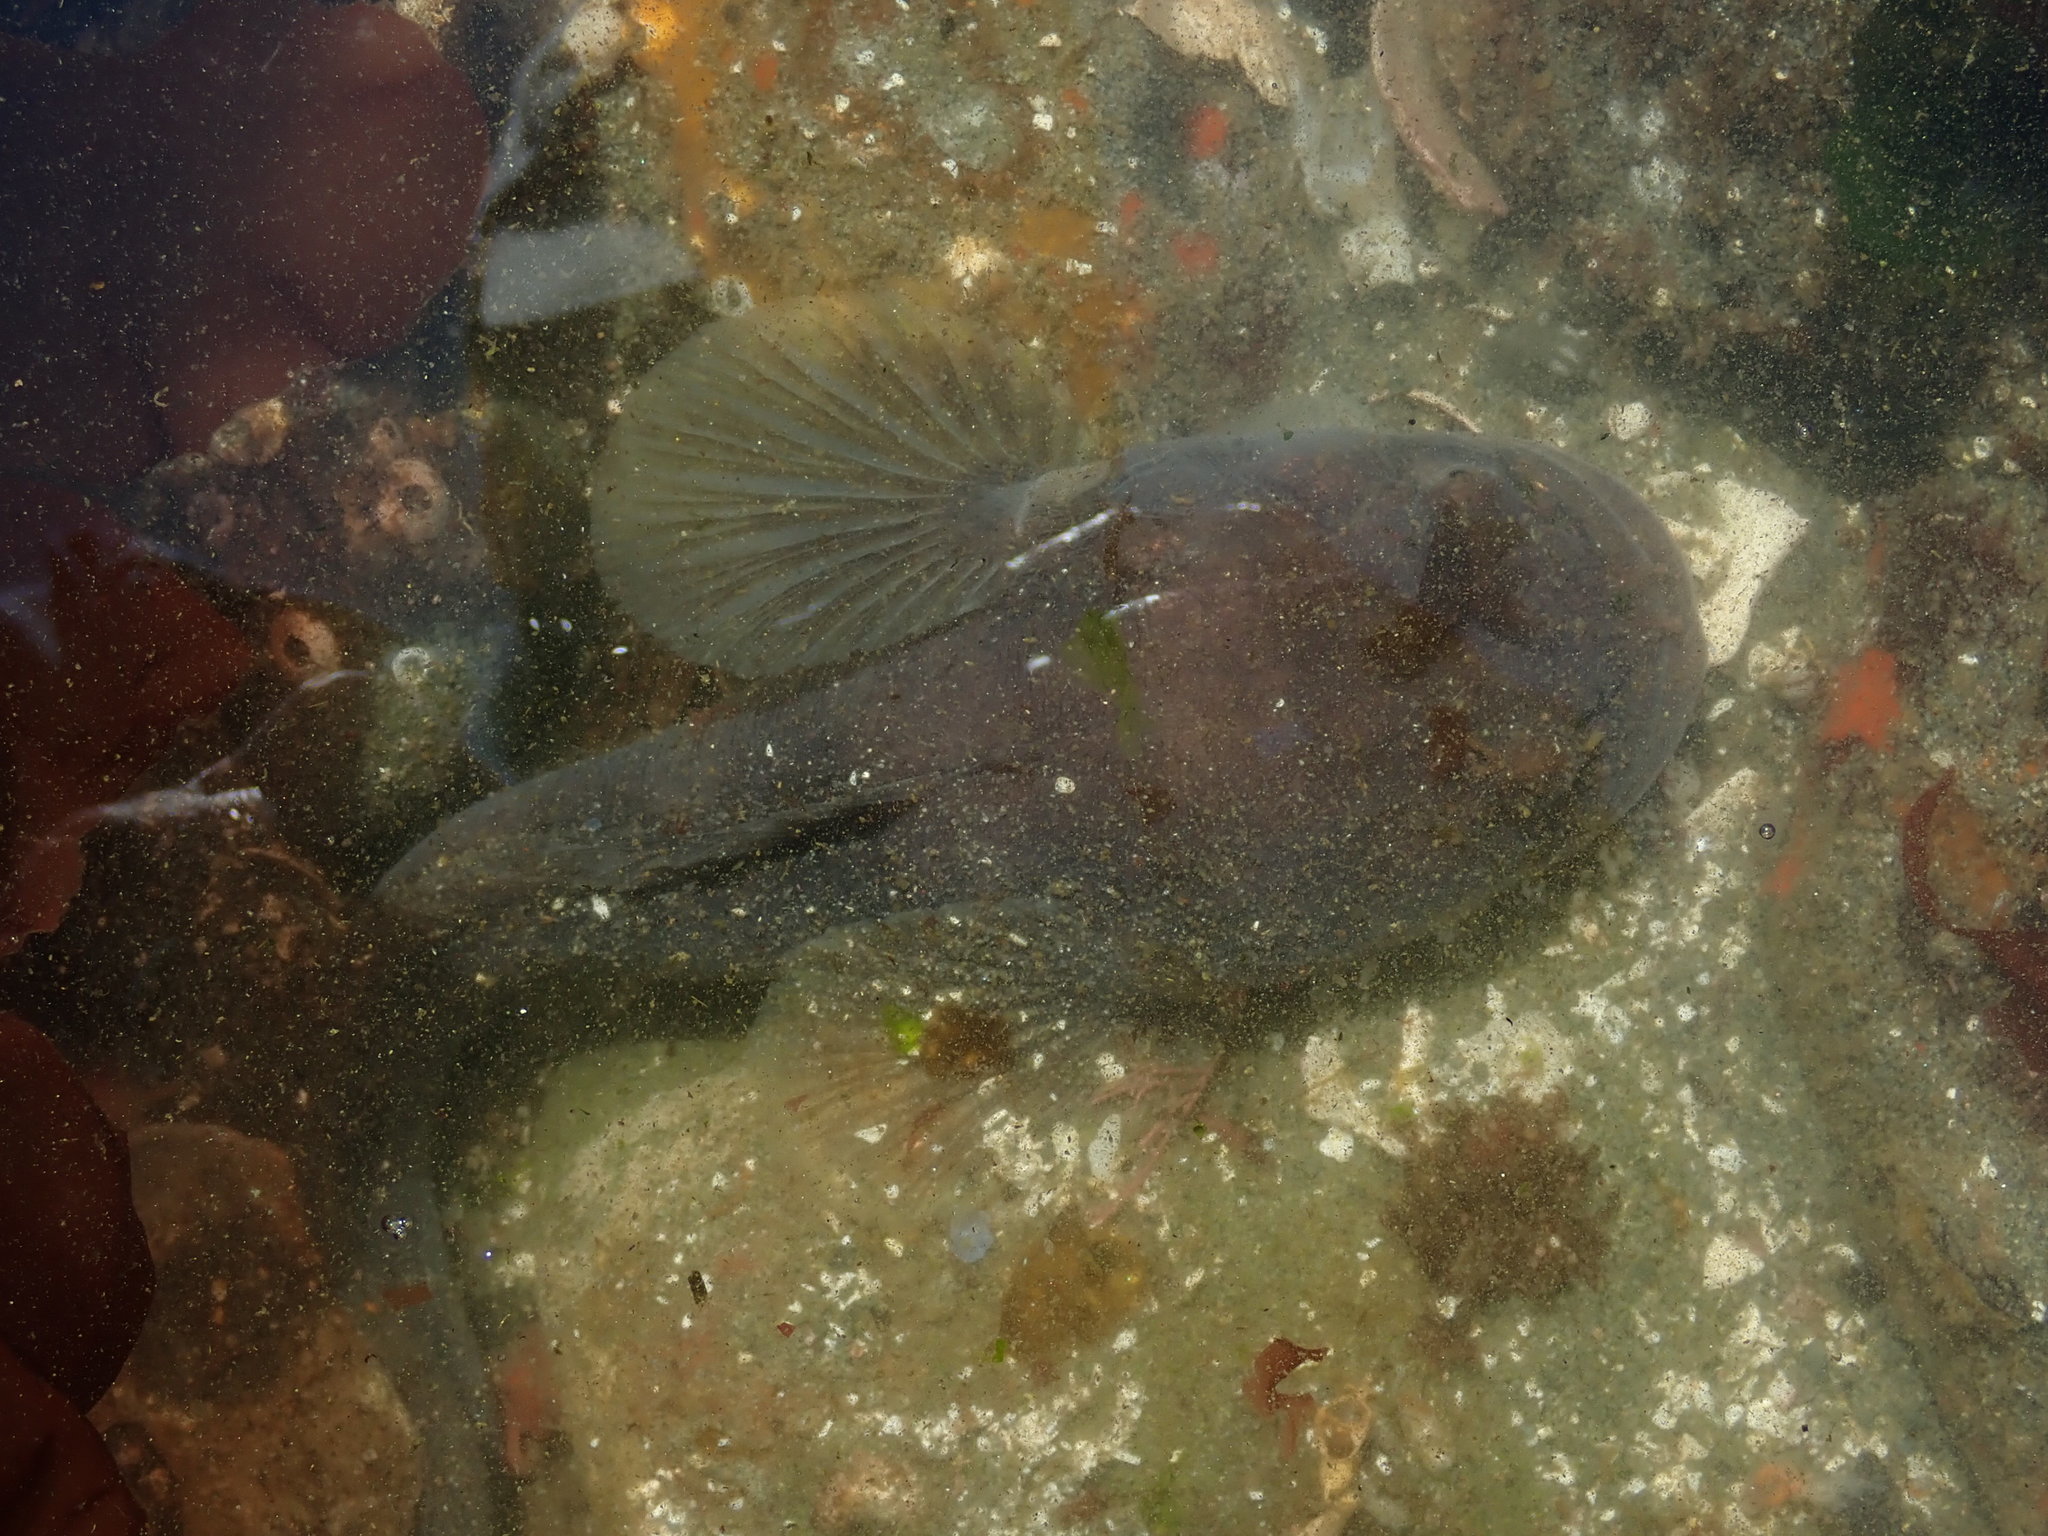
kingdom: Animalia
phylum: Chordata
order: Batrachoidiformes
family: Batrachoididae
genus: Porichthys
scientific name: Porichthys notatus
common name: Plainfin midshipman
